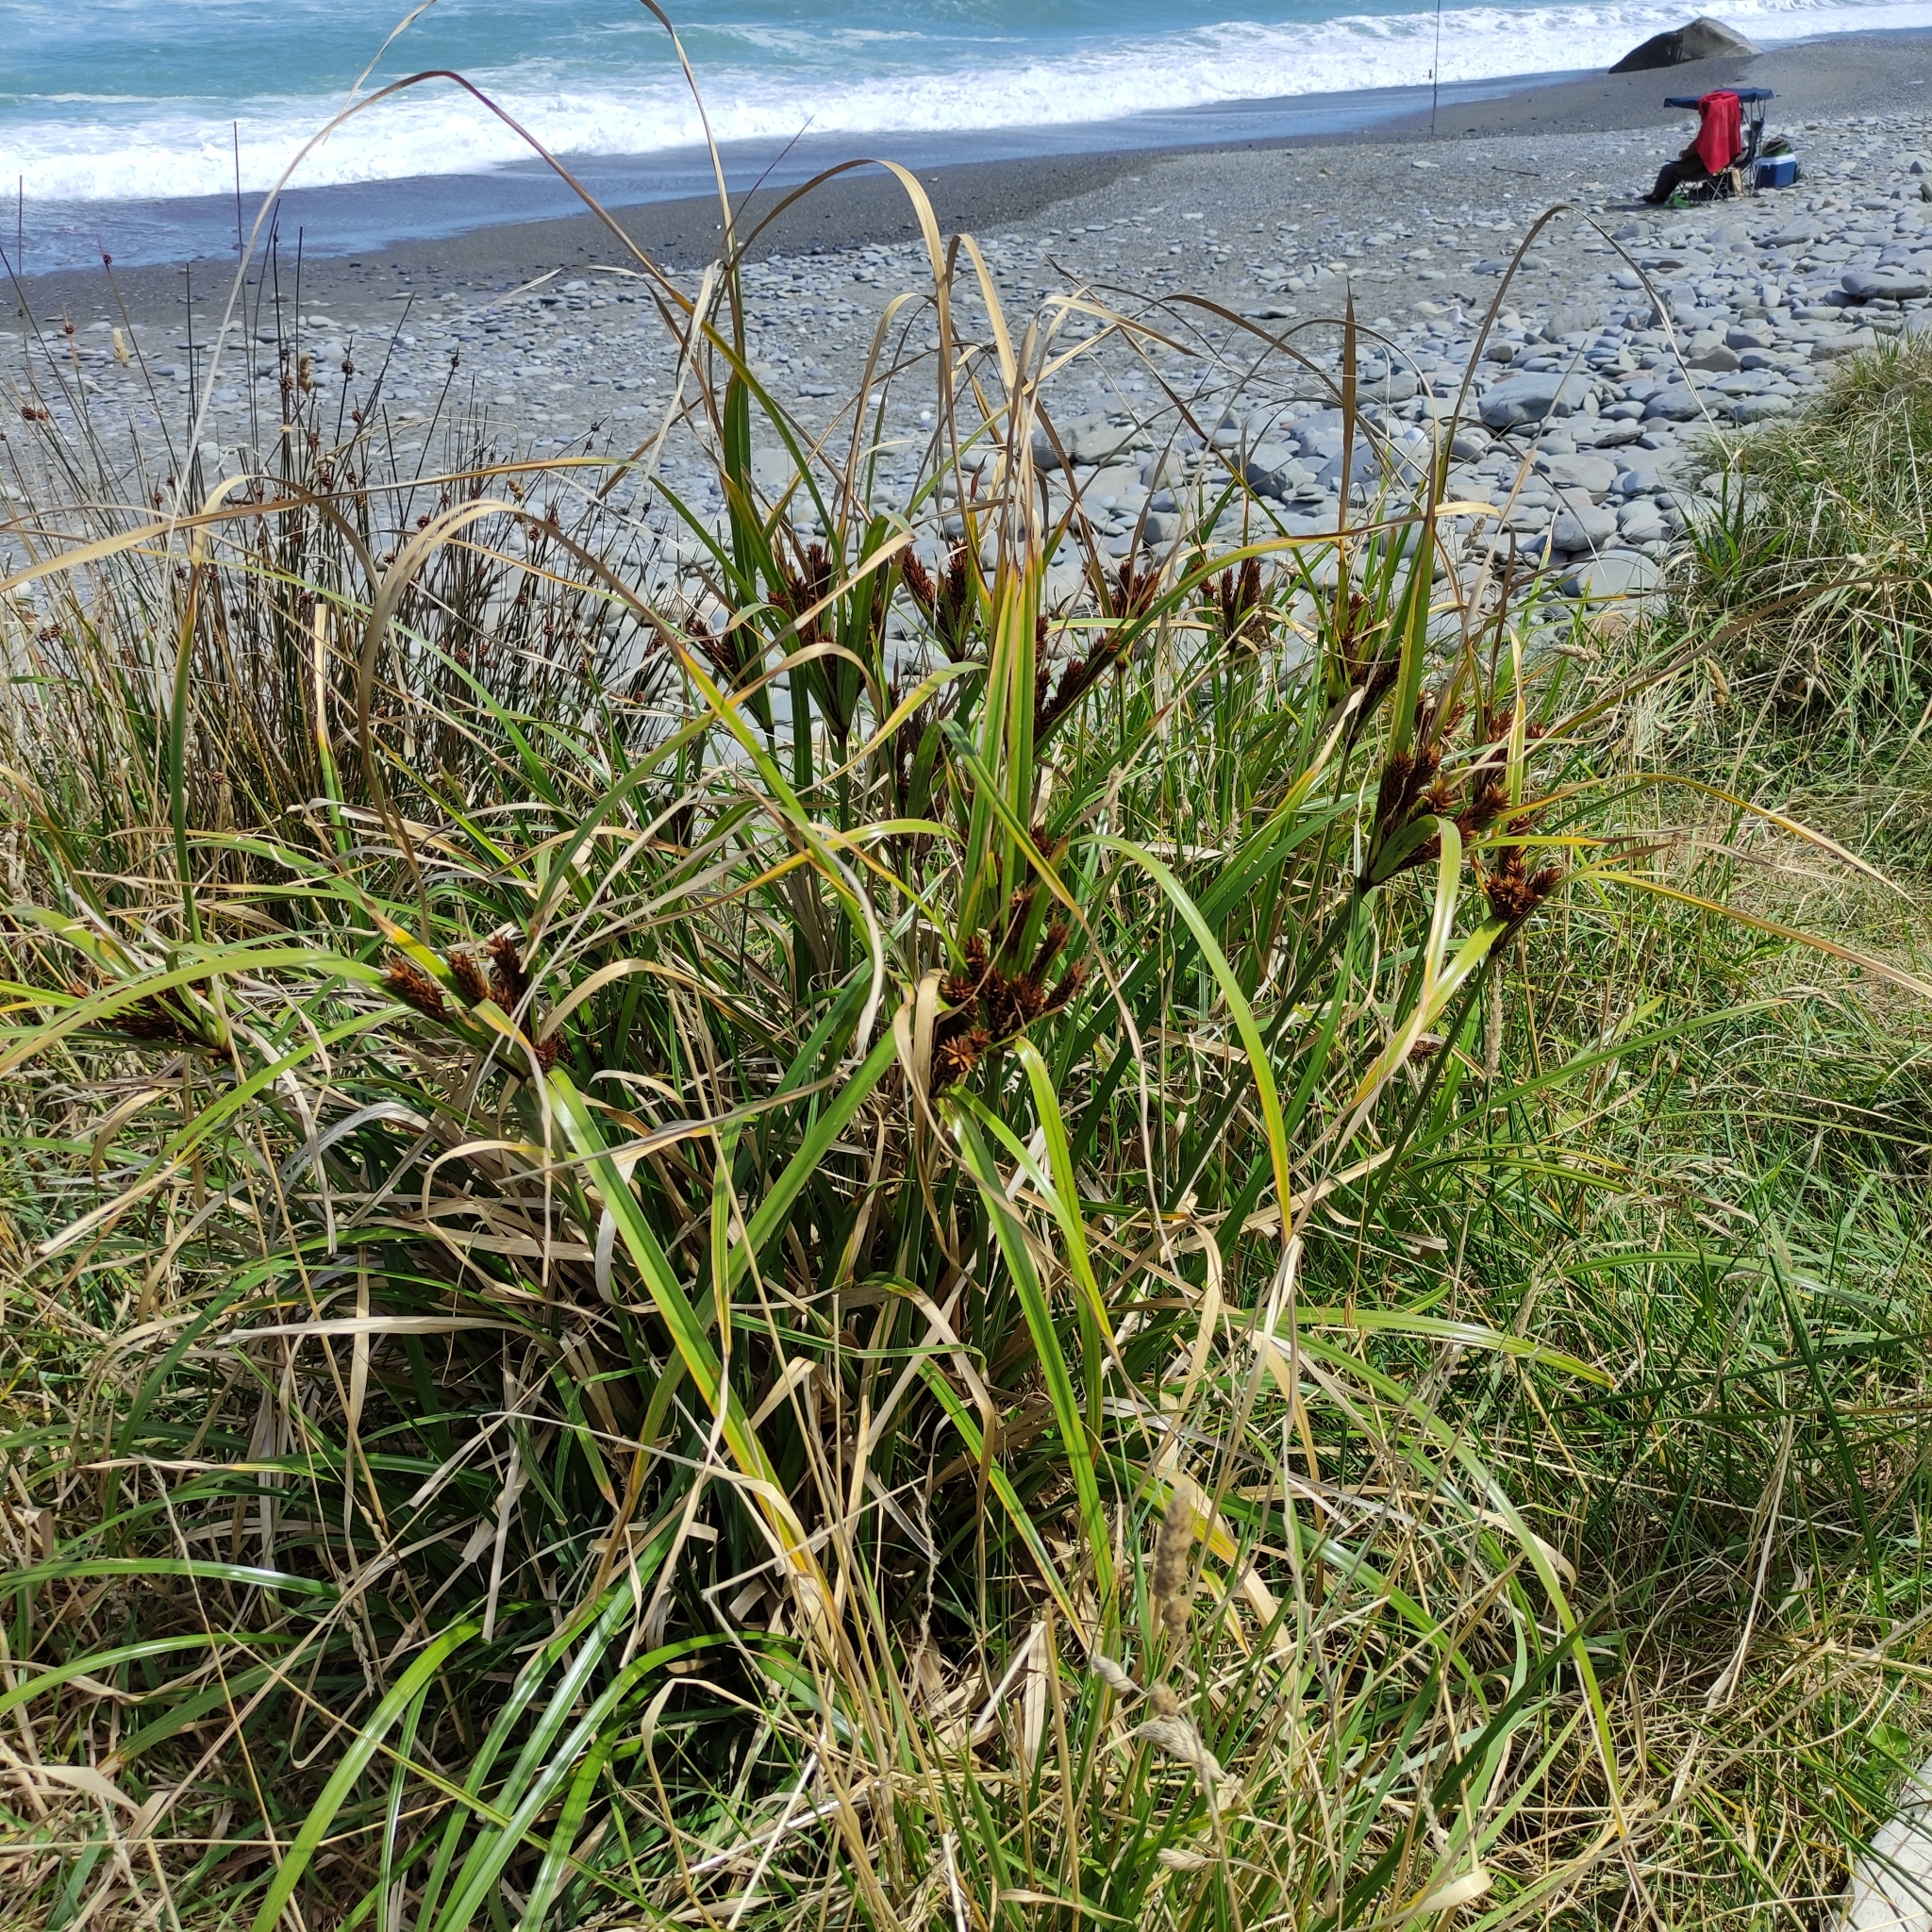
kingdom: Plantae
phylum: Tracheophyta
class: Liliopsida
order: Poales
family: Cyperaceae
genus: Cyperus
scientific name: Cyperus ustulatus
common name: Giant umbrella-sedge
